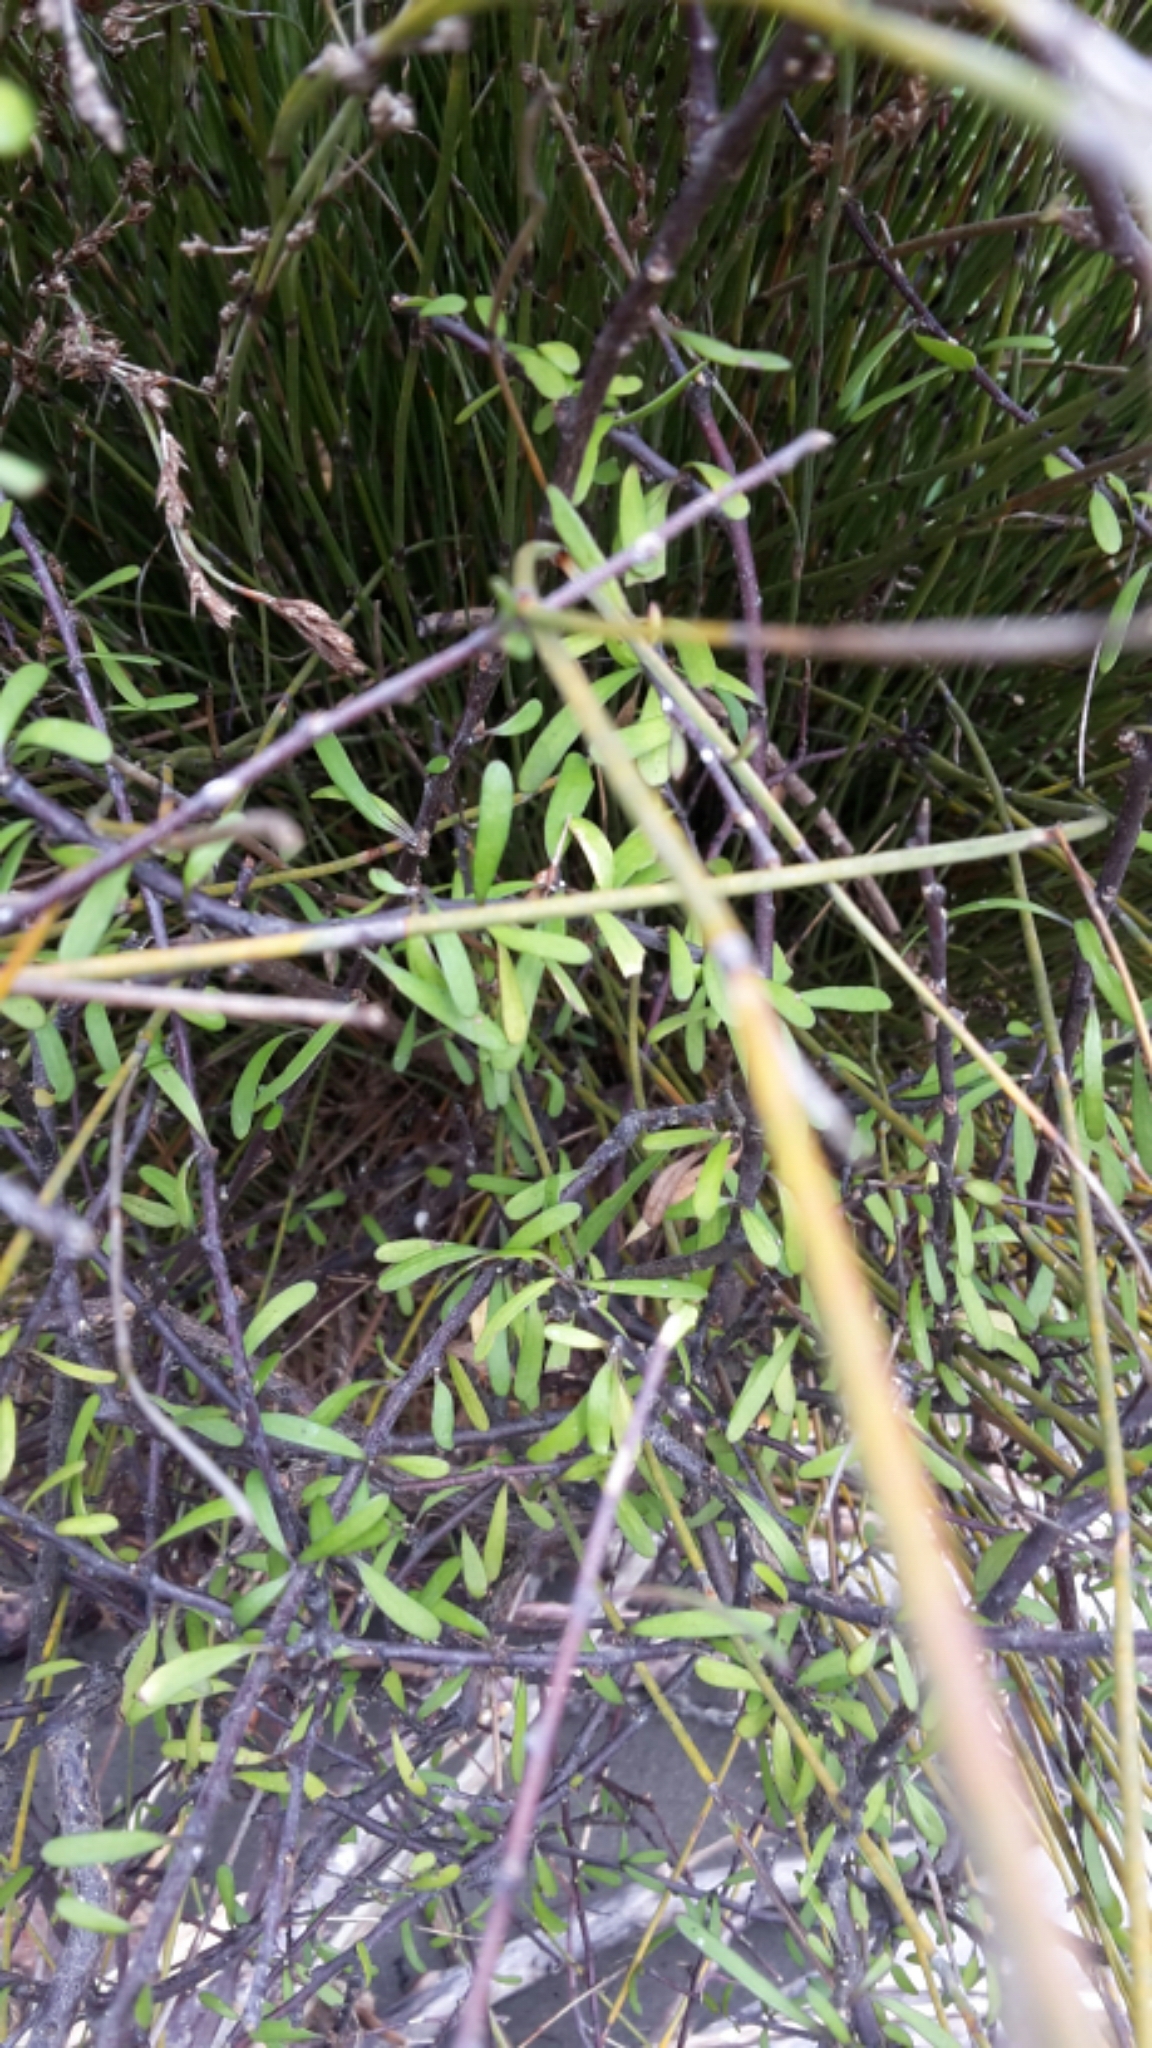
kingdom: Plantae
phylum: Tracheophyta
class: Magnoliopsida
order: Malvales
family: Malvaceae
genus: Plagianthus
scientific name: Plagianthus divaricatus
